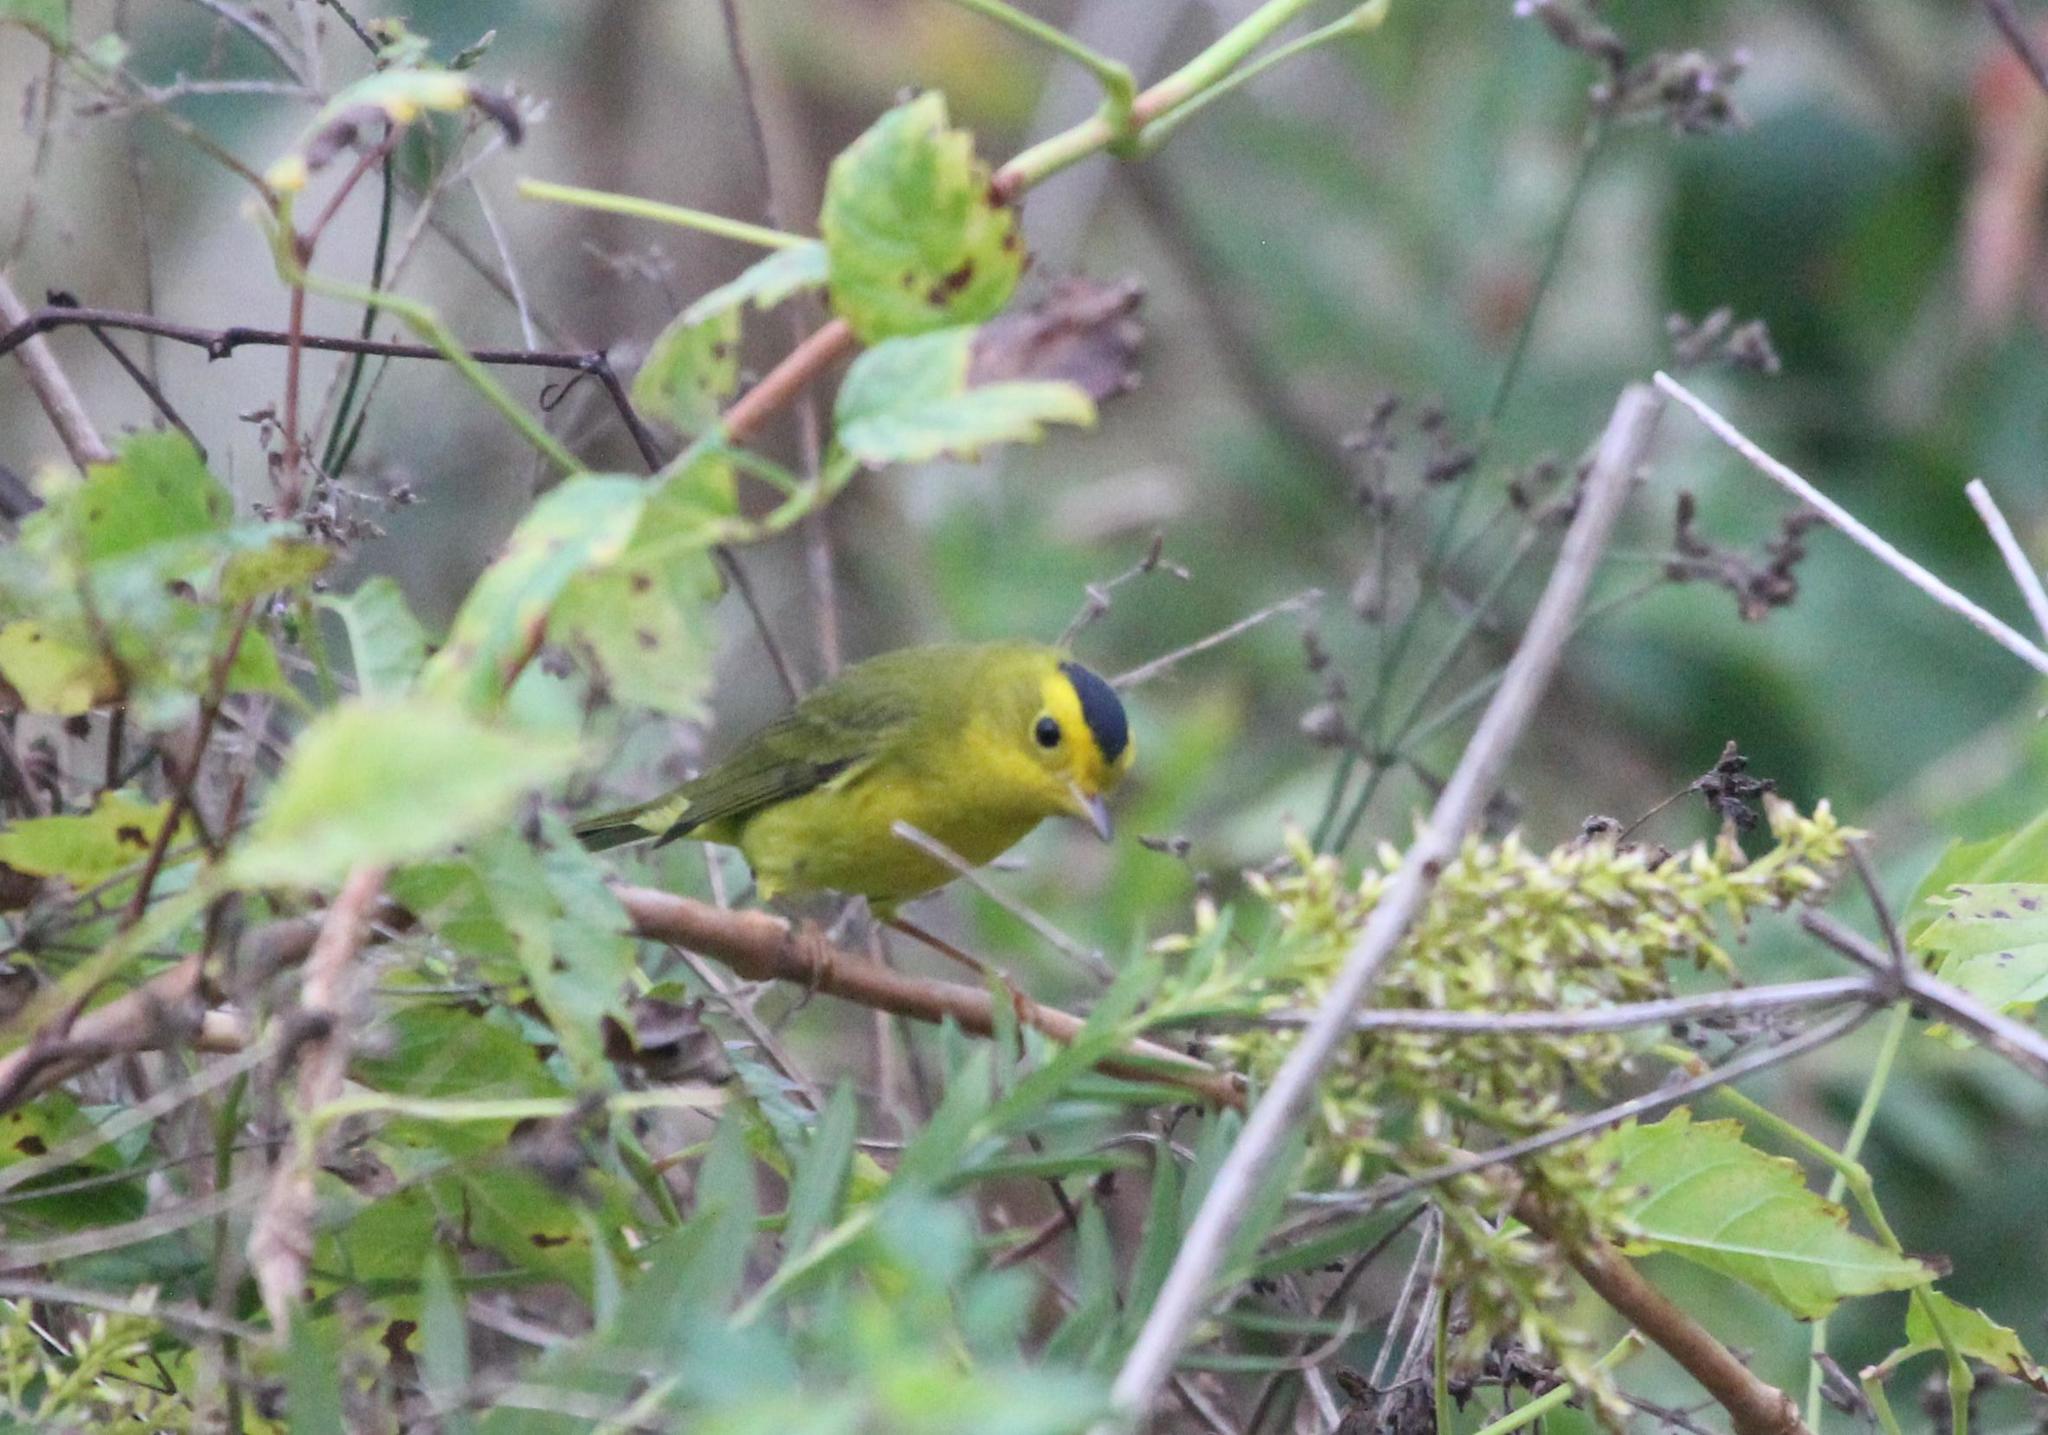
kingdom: Animalia
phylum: Chordata
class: Aves
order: Passeriformes
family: Parulidae
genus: Cardellina
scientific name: Cardellina pusilla
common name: Wilson's warbler
